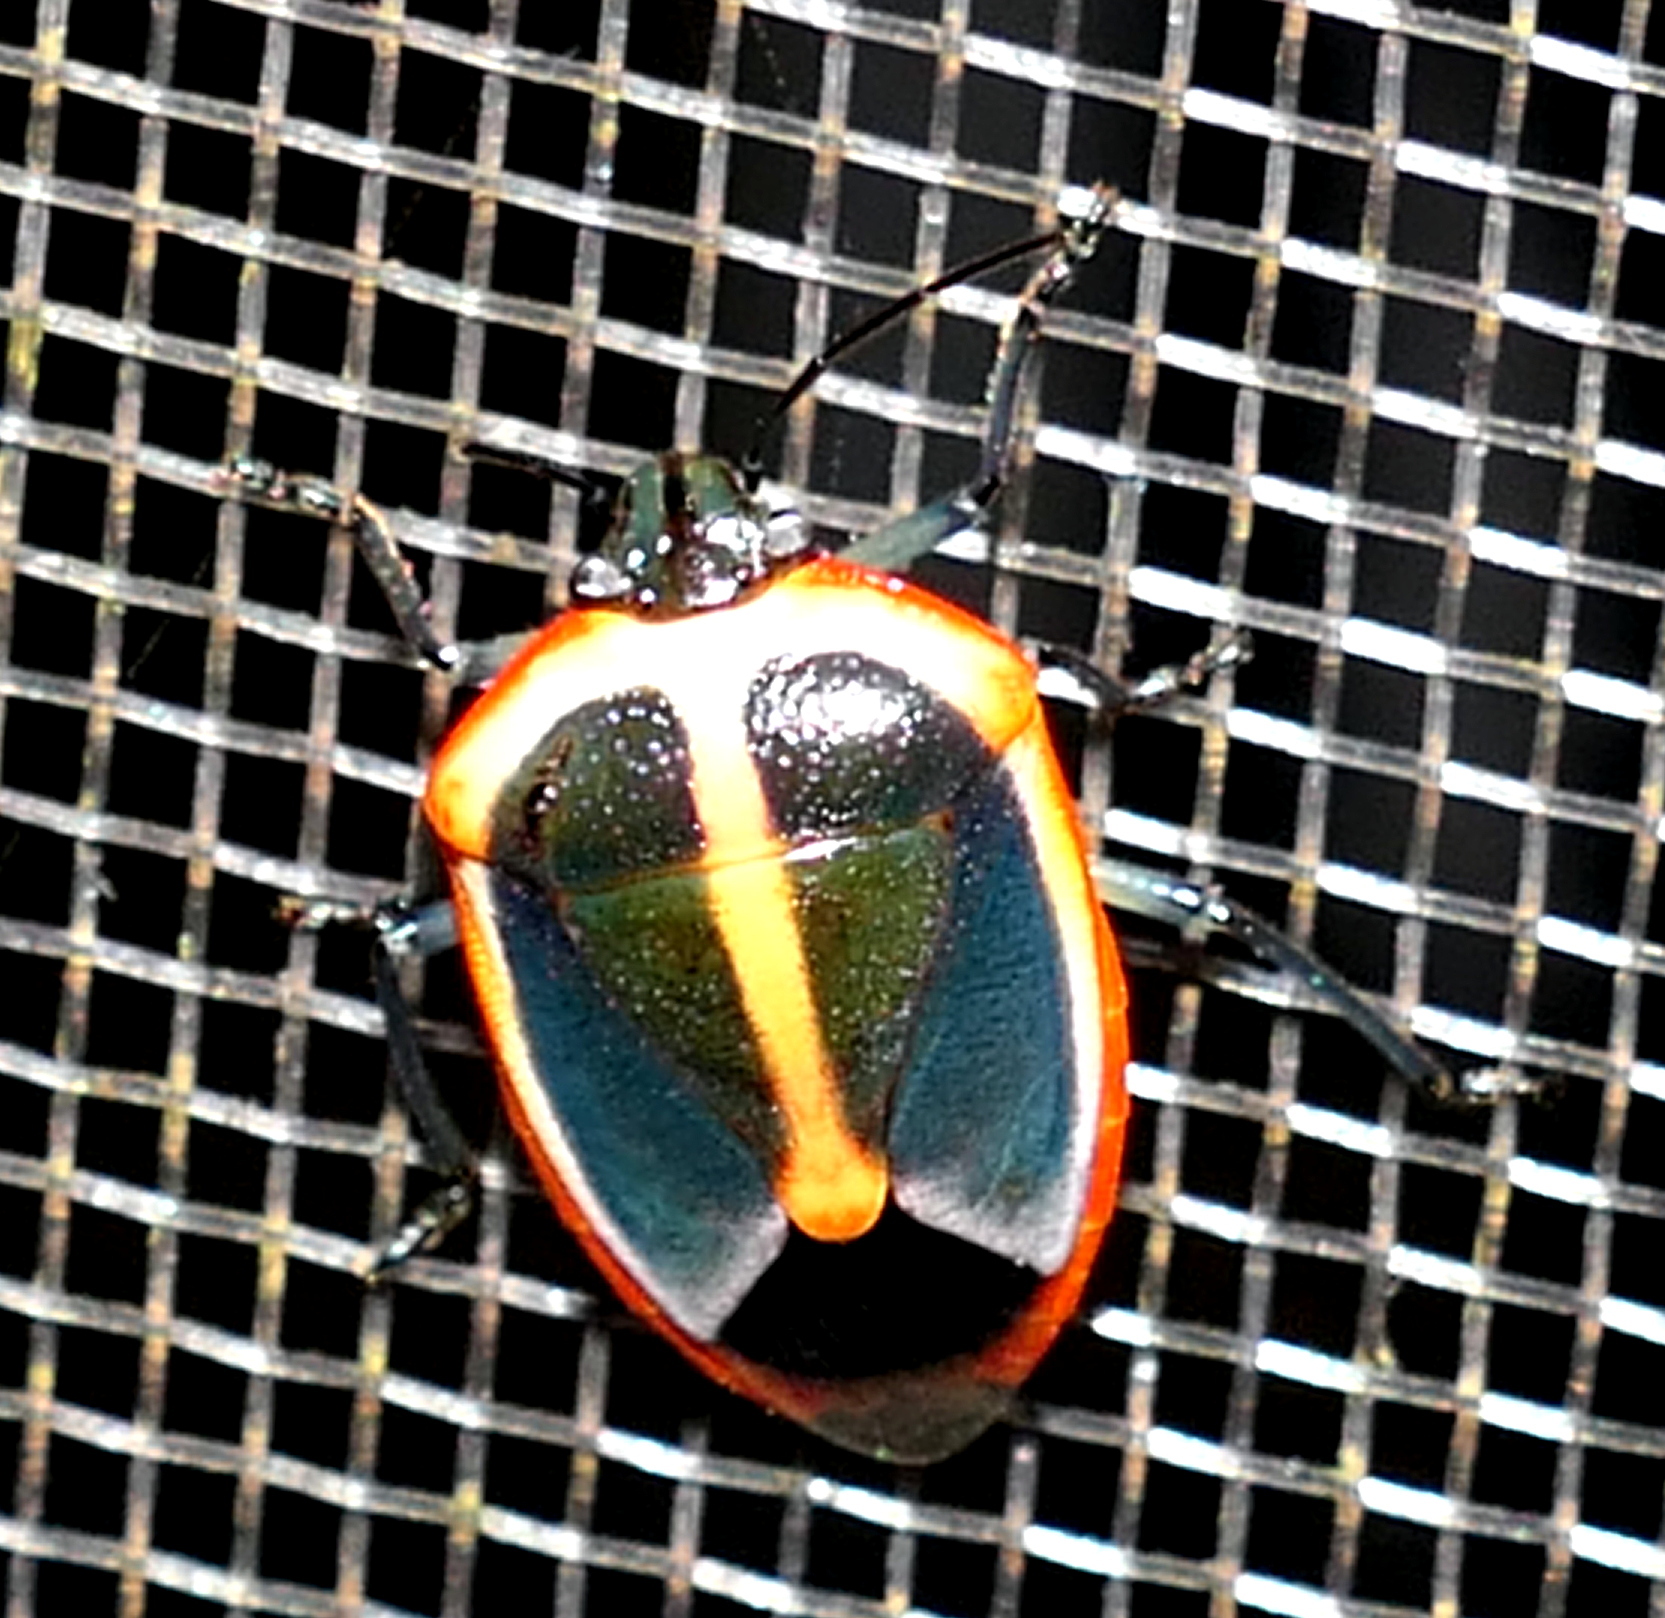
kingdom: Animalia
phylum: Arthropoda
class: Insecta
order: Hemiptera
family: Pentatomidae
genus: Roferta
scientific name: Roferta marginalis
